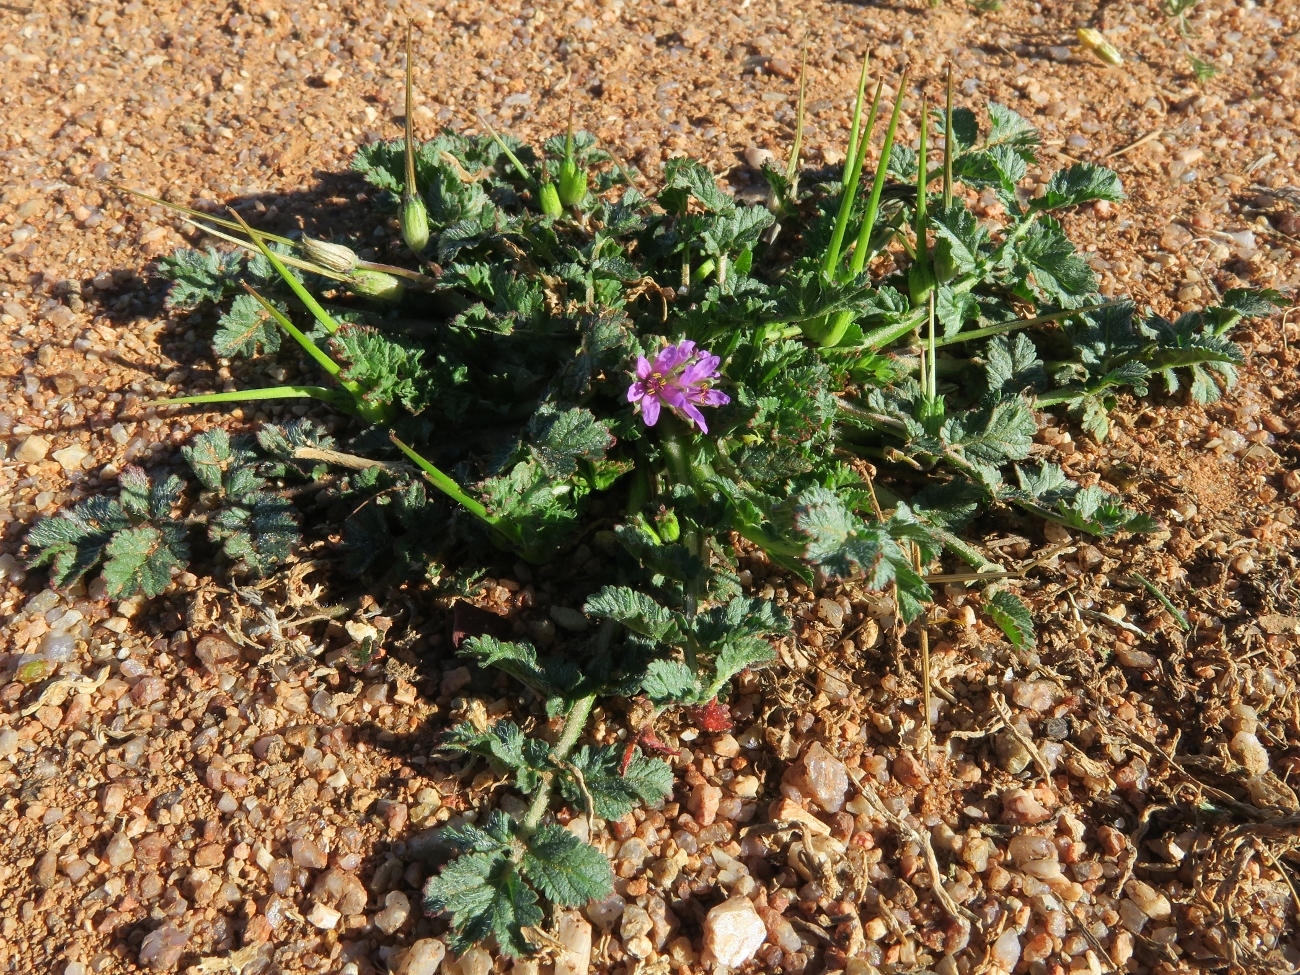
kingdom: Plantae
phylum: Tracheophyta
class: Magnoliopsida
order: Geraniales
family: Geraniaceae
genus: Erodium
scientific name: Erodium cicutarium
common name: Common stork's-bill
